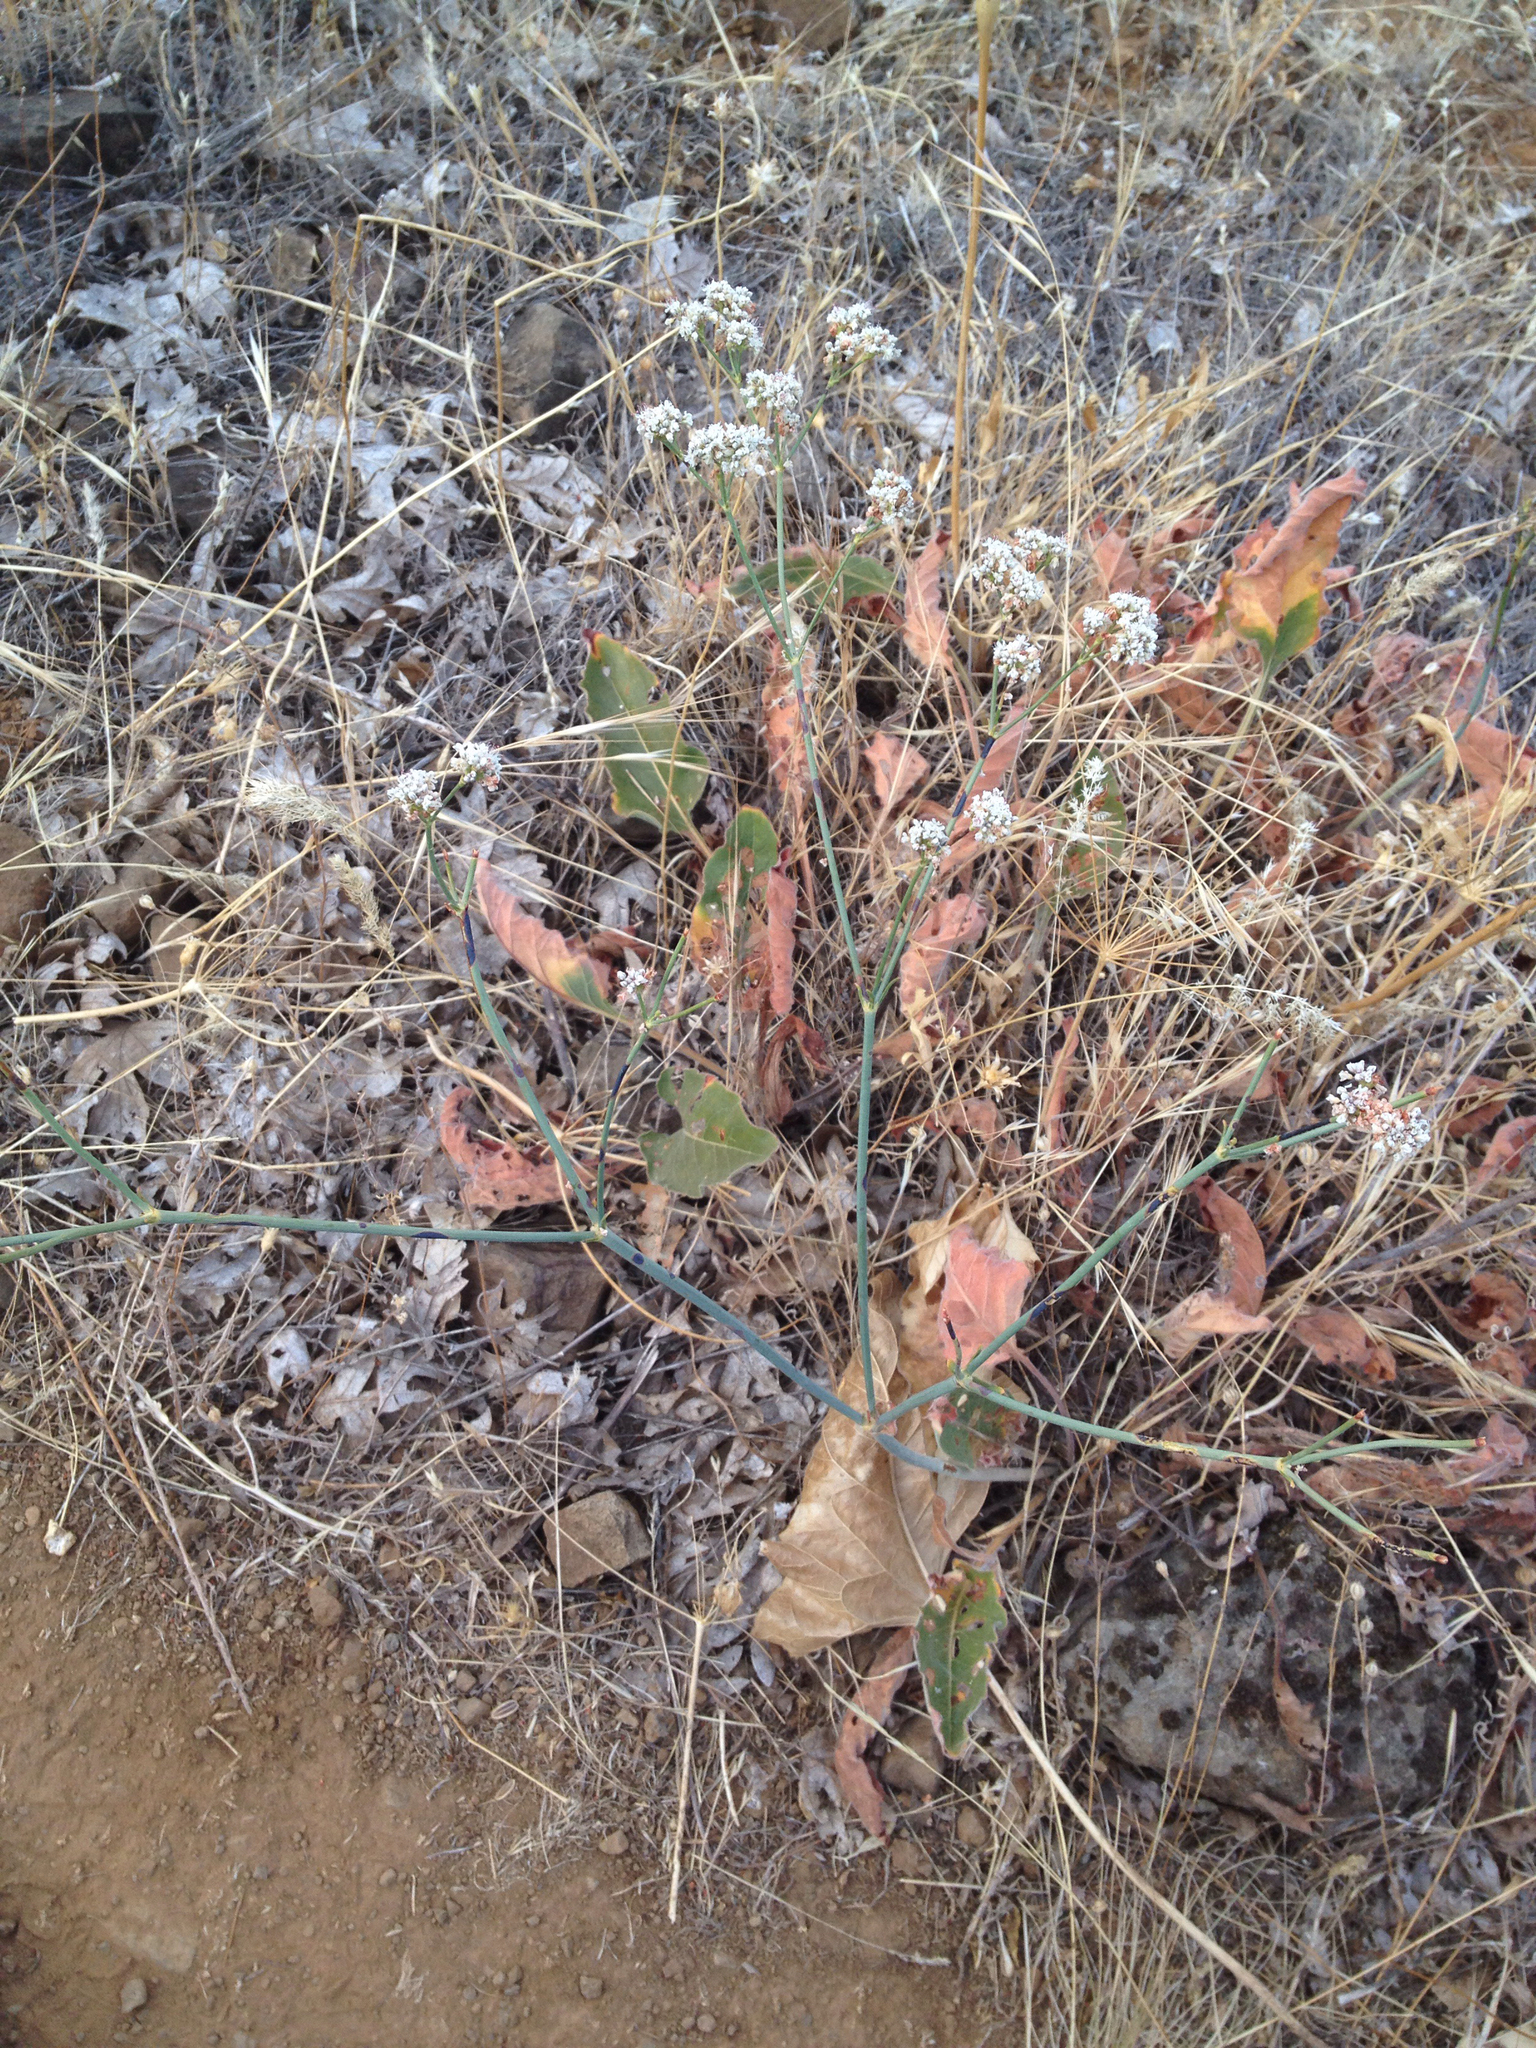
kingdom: Plantae
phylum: Tracheophyta
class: Magnoliopsida
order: Caryophyllales
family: Polygonaceae
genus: Eriogonum
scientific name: Eriogonum elatum
